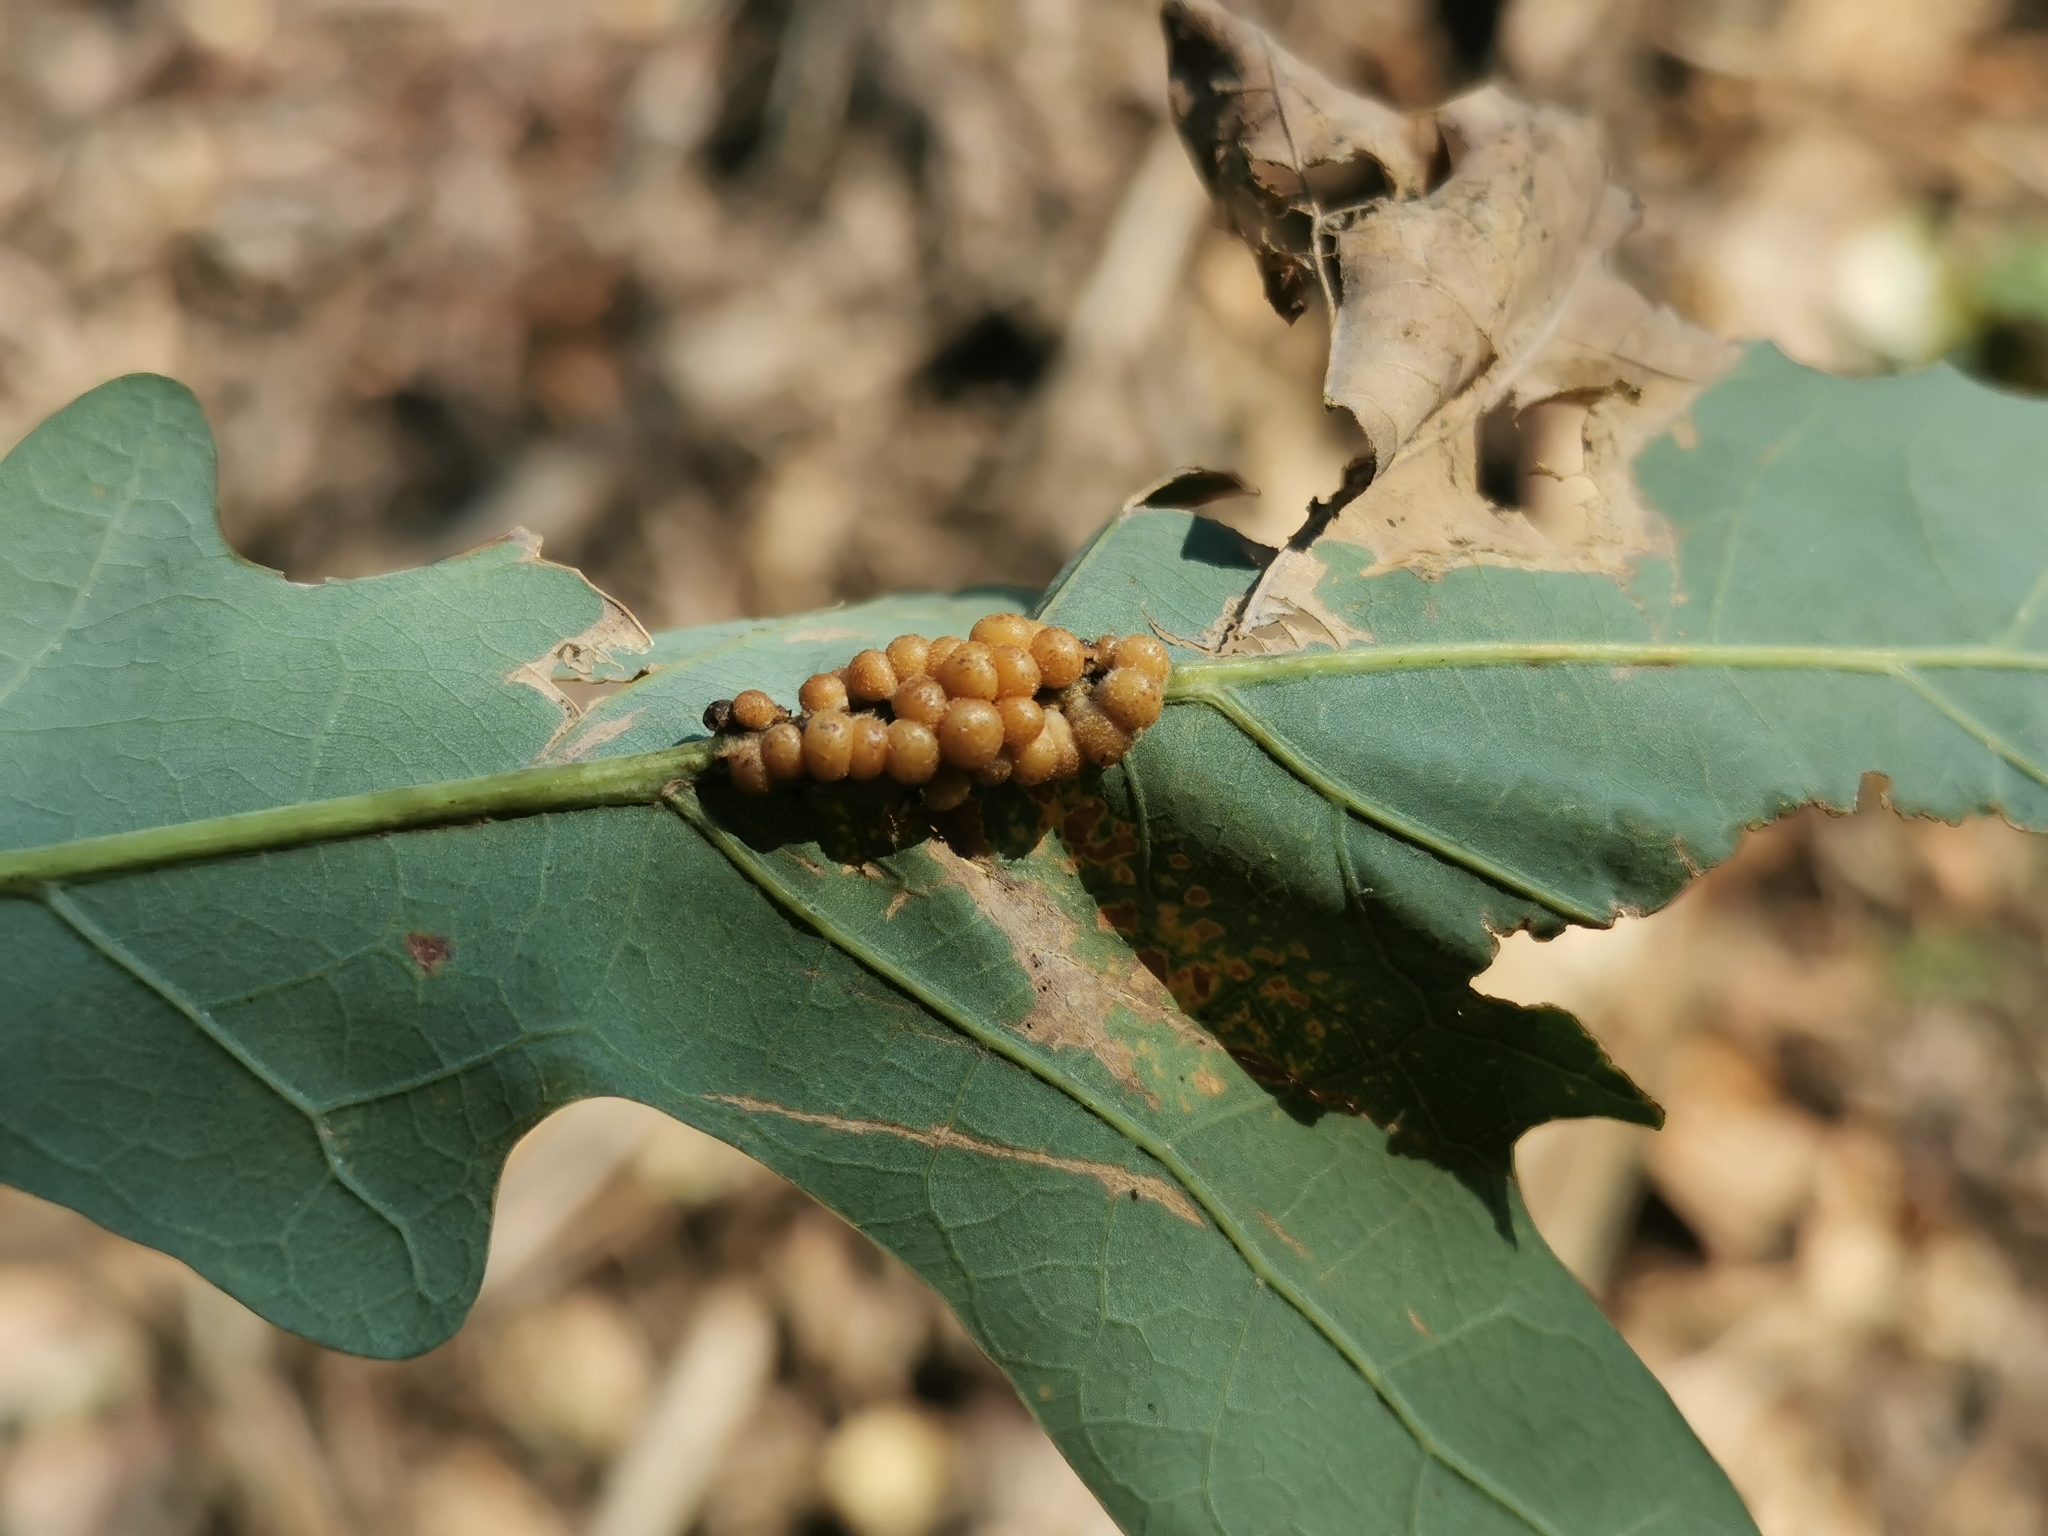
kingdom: Animalia
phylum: Arthropoda
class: Insecta
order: Hymenoptera
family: Cynipidae
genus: Andricus
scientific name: Andricus
